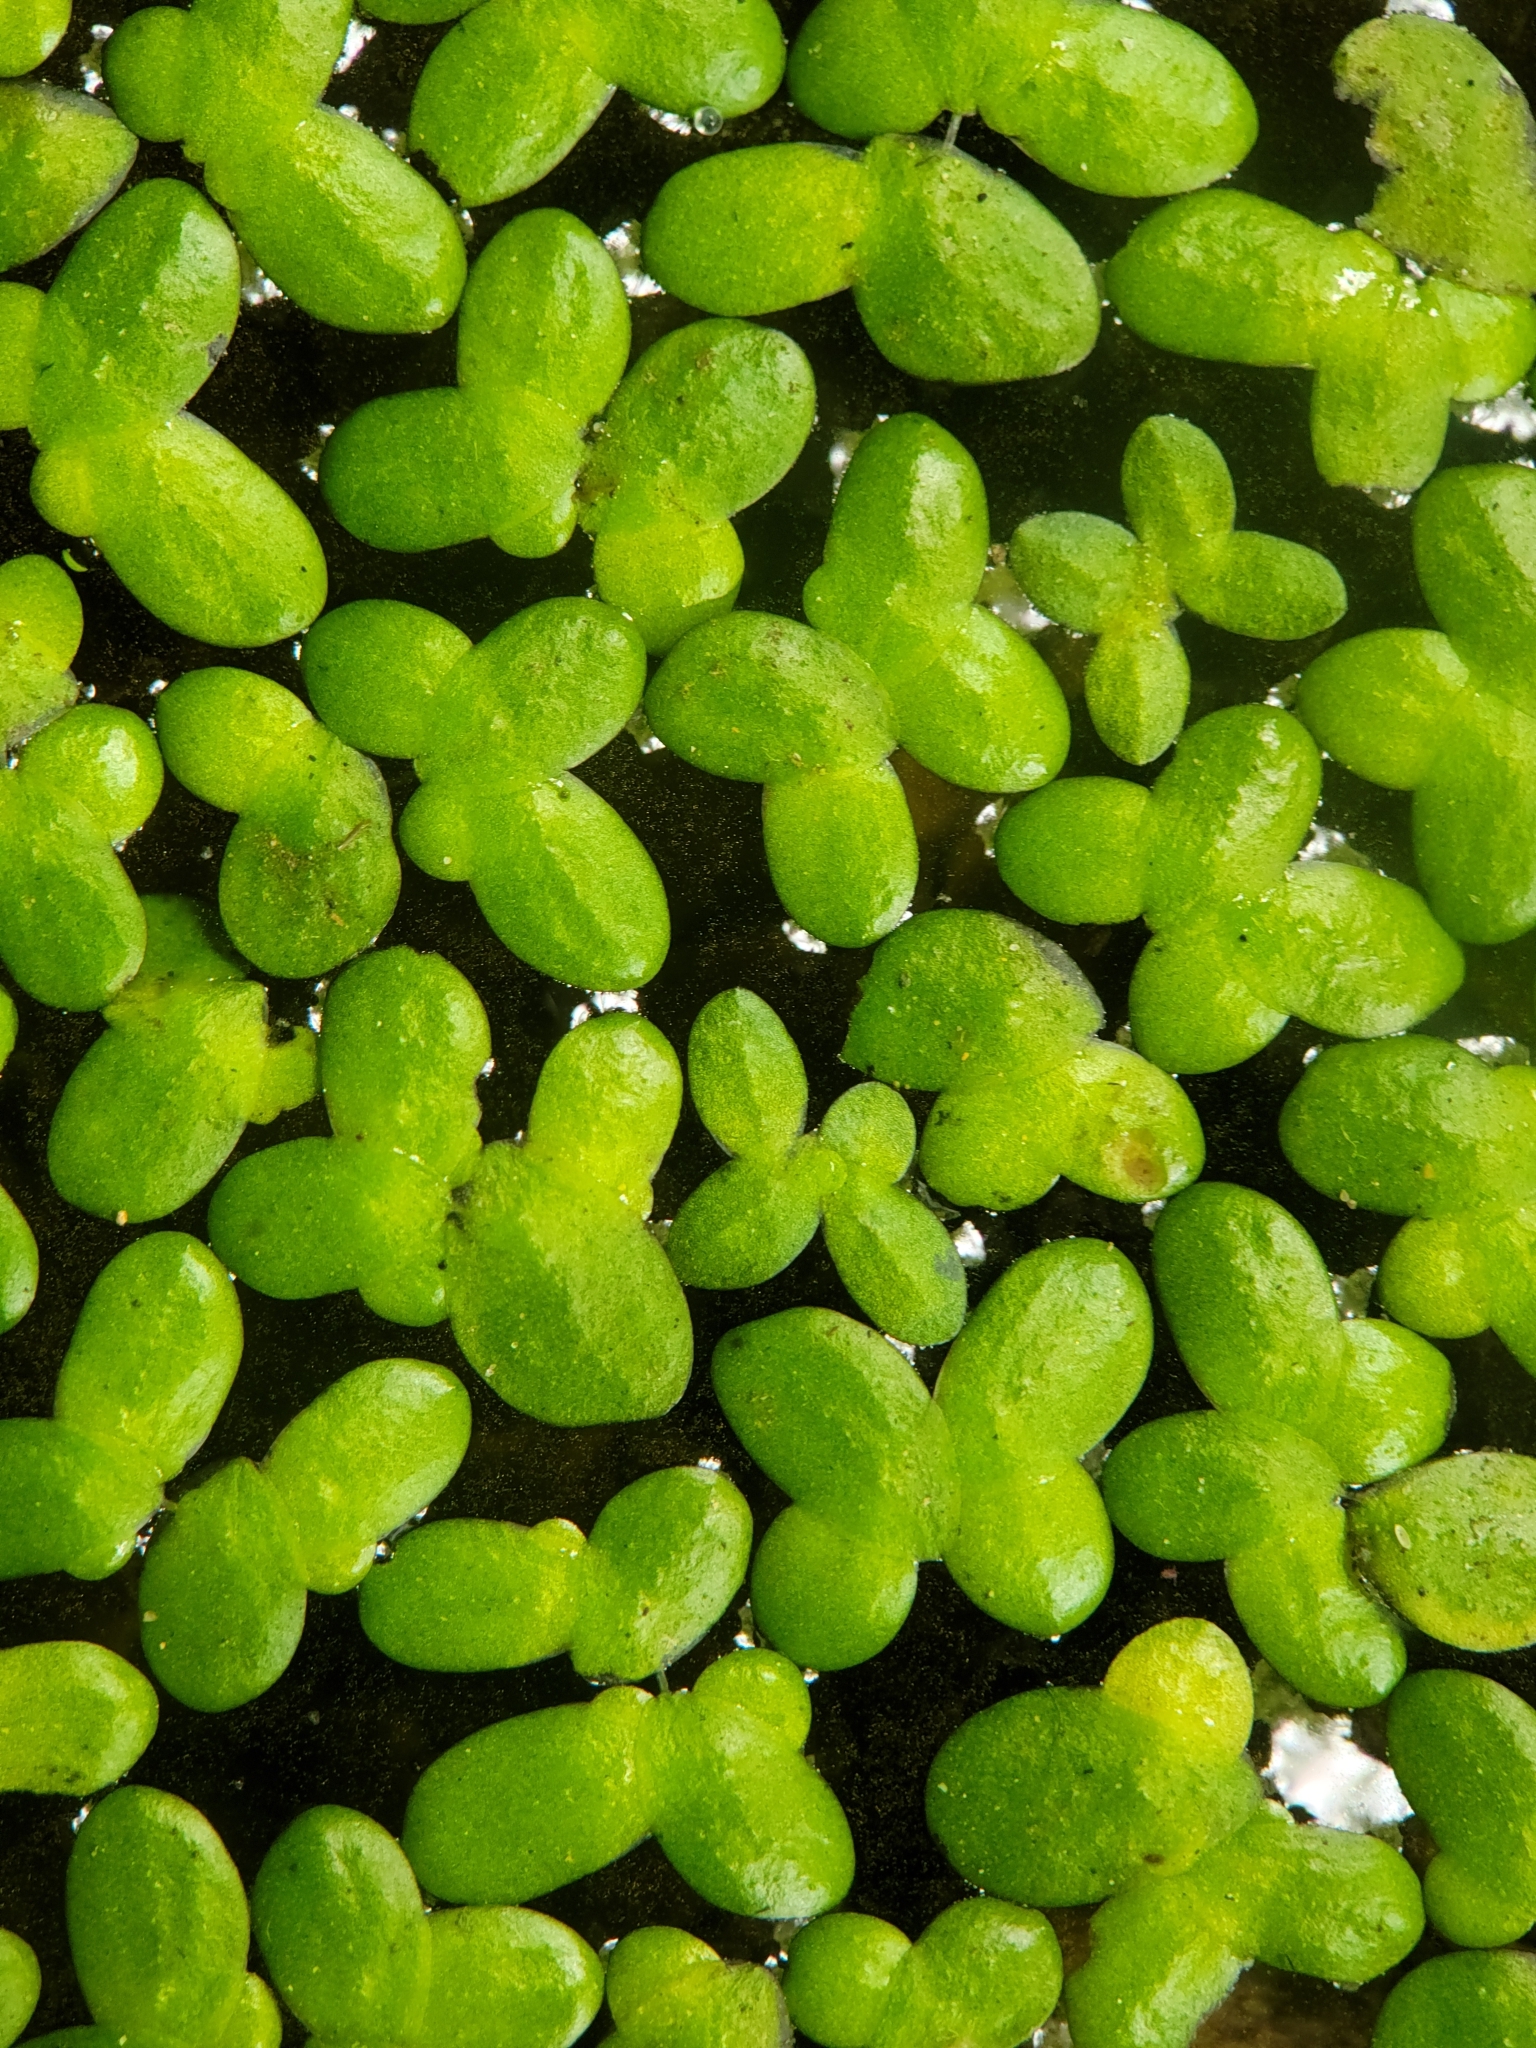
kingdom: Plantae
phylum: Tracheophyta
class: Liliopsida
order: Alismatales
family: Araceae
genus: Lemna
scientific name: Lemna minor
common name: Common duckweed
